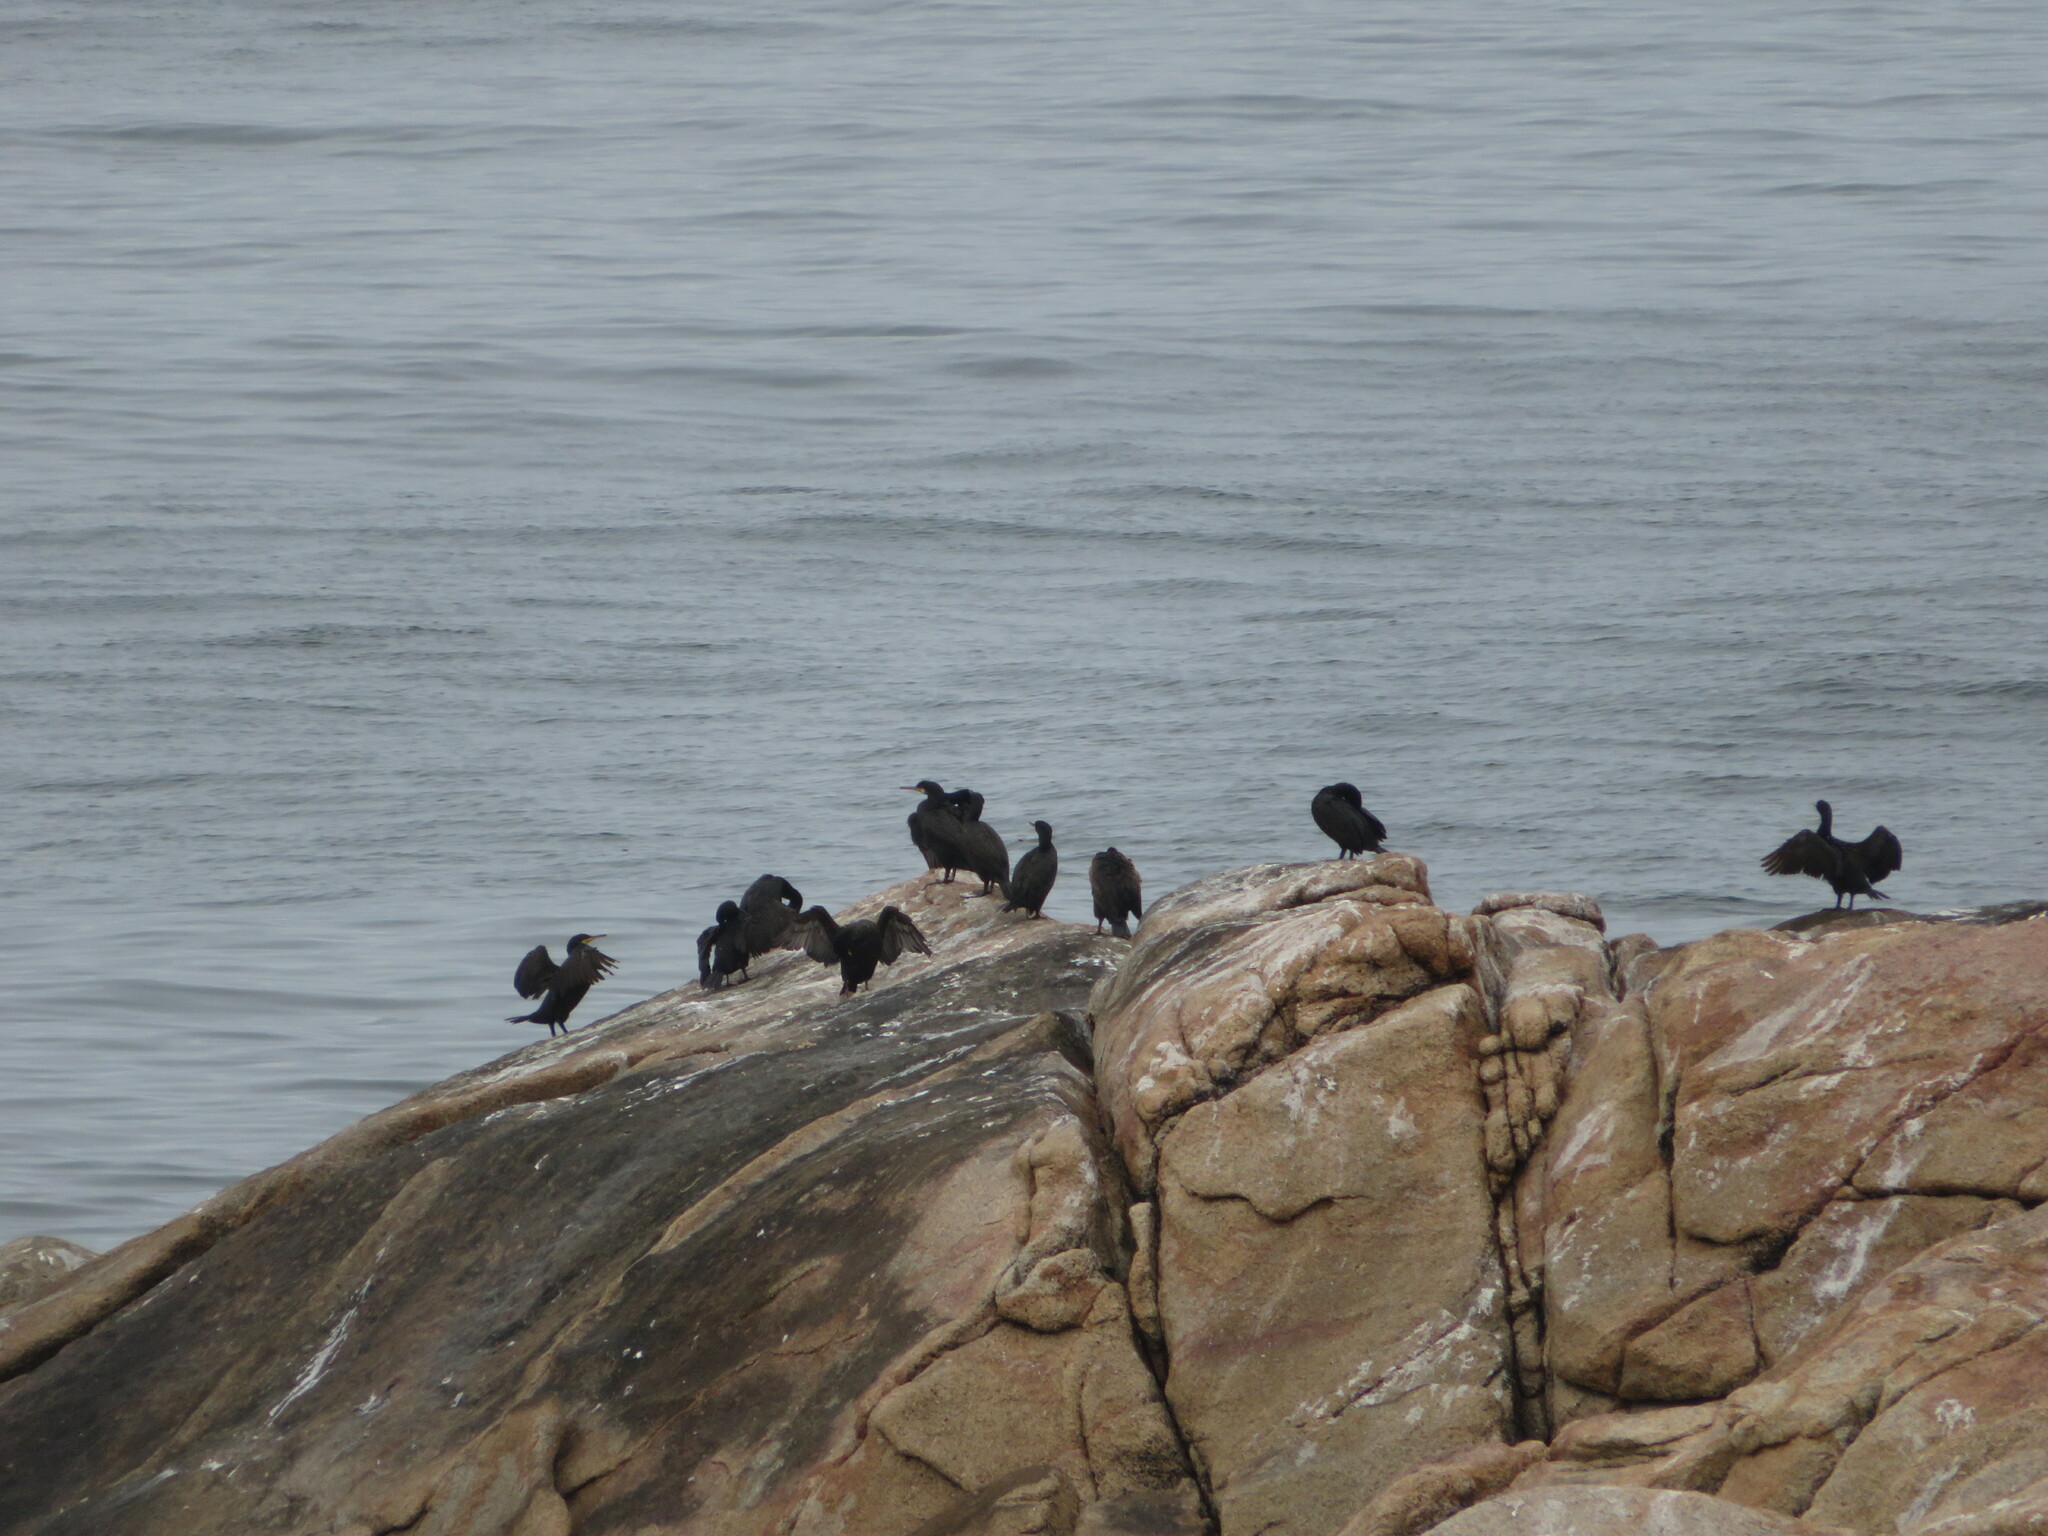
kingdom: Animalia
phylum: Chordata
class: Aves
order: Suliformes
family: Phalacrocoracidae
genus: Phalacrocorax
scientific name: Phalacrocorax aristotelis
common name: European shag
